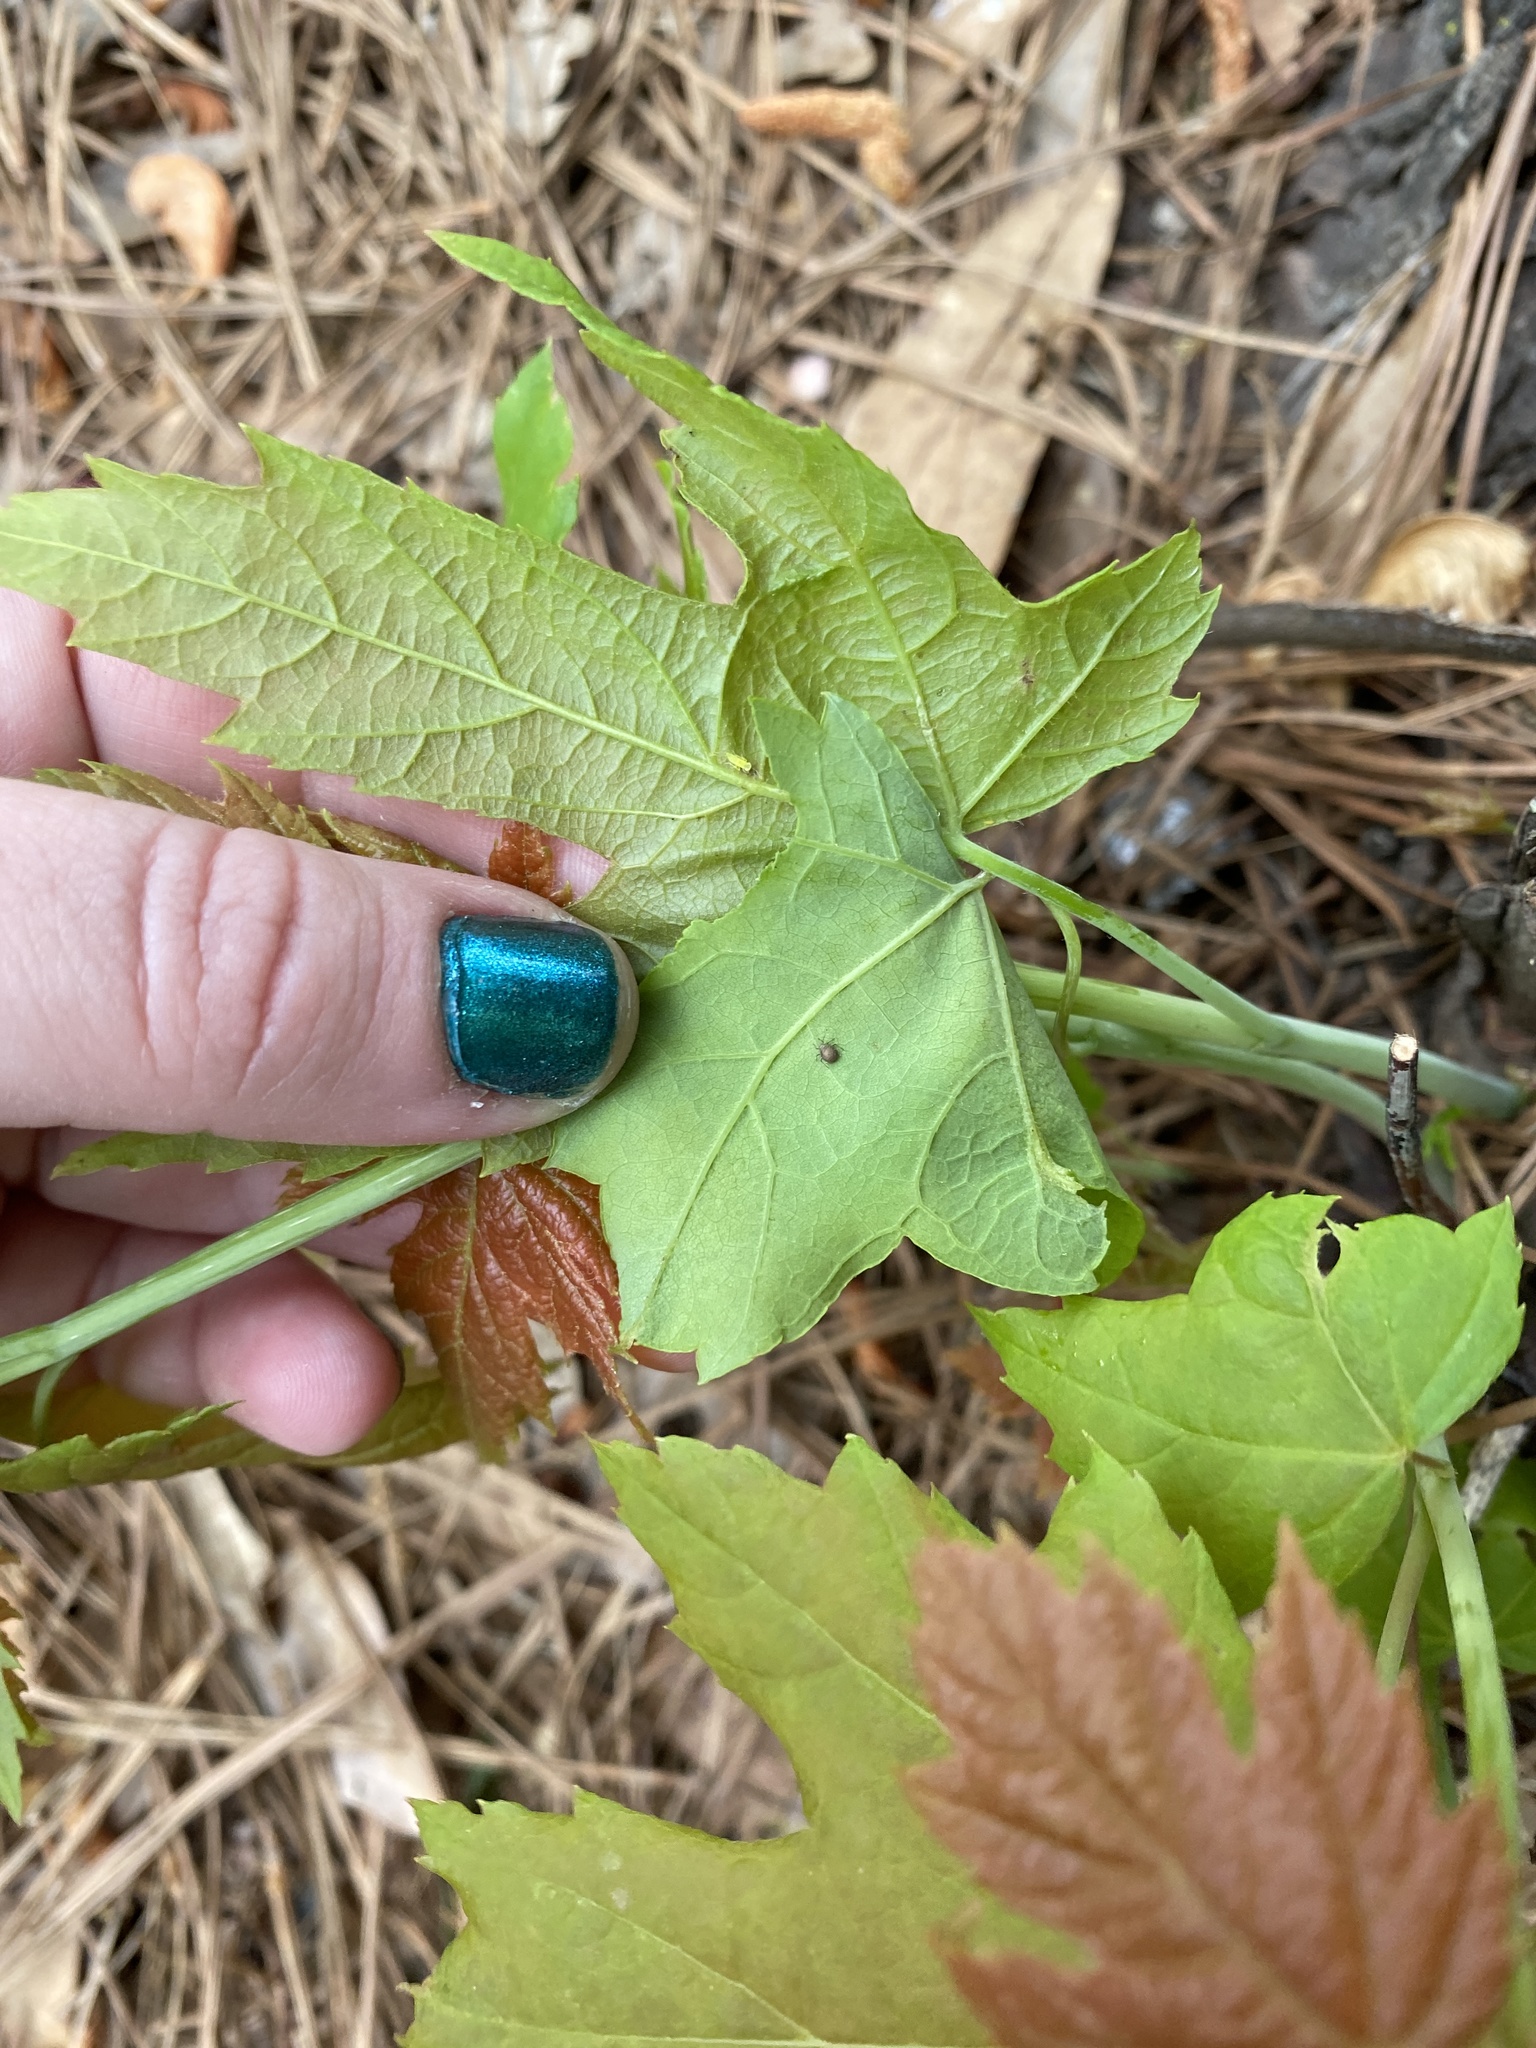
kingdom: Plantae
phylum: Tracheophyta
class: Magnoliopsida
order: Sapindales
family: Sapindaceae
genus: Acer
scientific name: Acer saccharinum
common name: Silver maple
